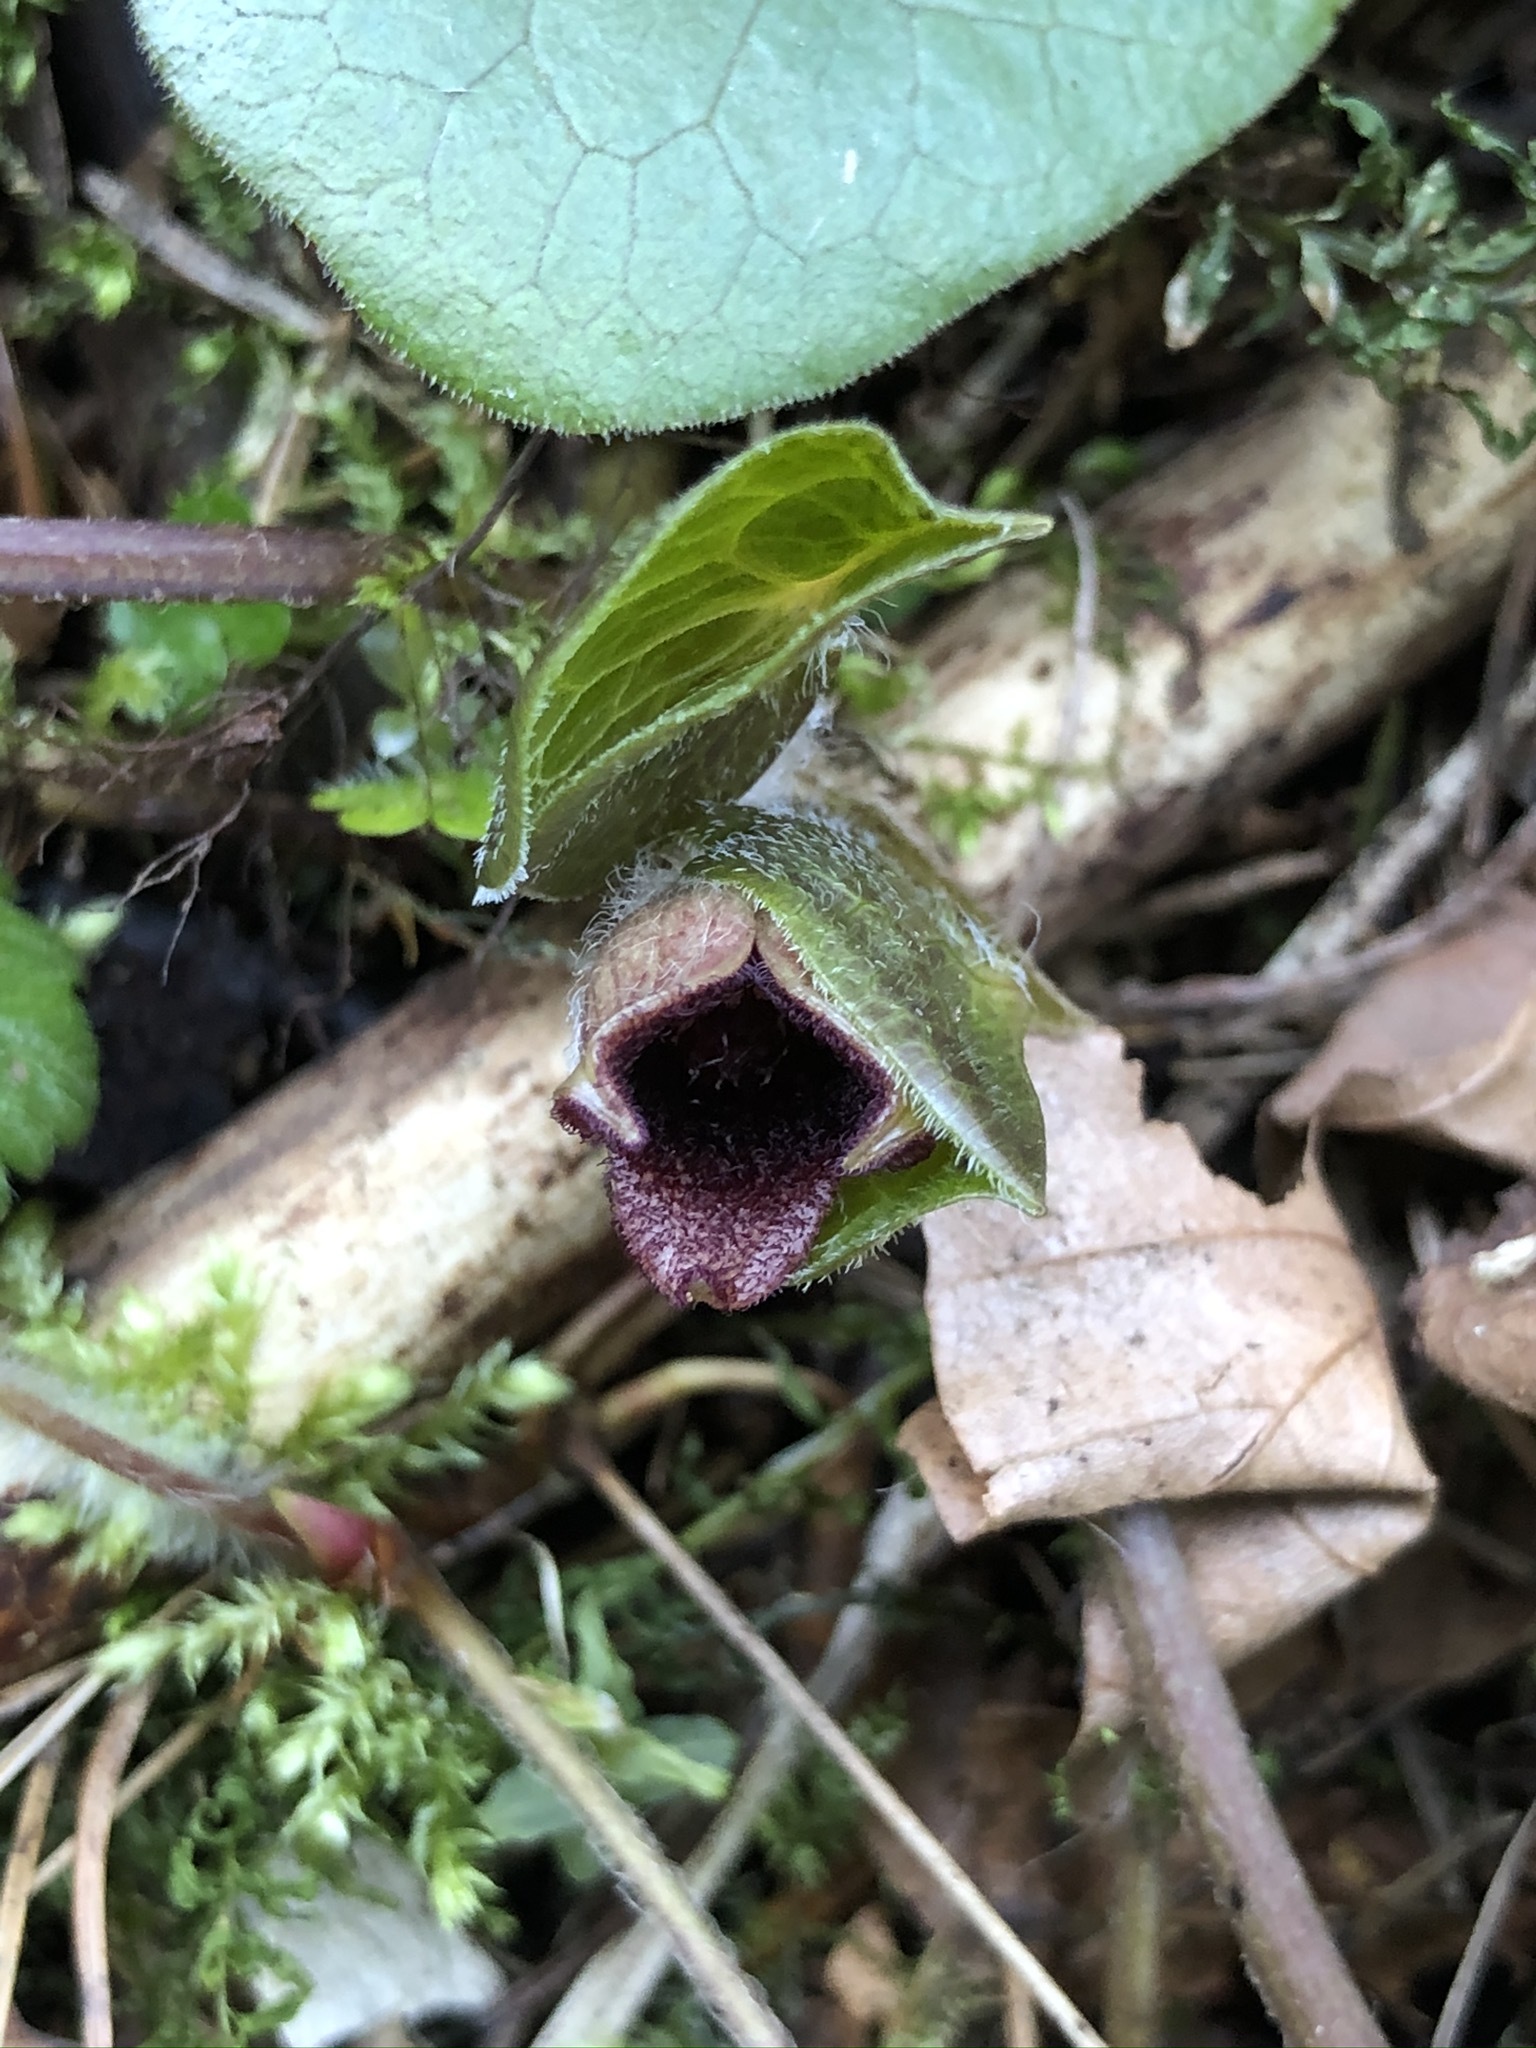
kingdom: Plantae
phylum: Tracheophyta
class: Magnoliopsida
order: Piperales
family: Aristolochiaceae
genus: Asarum
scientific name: Asarum europaeum
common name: Asarabacca
